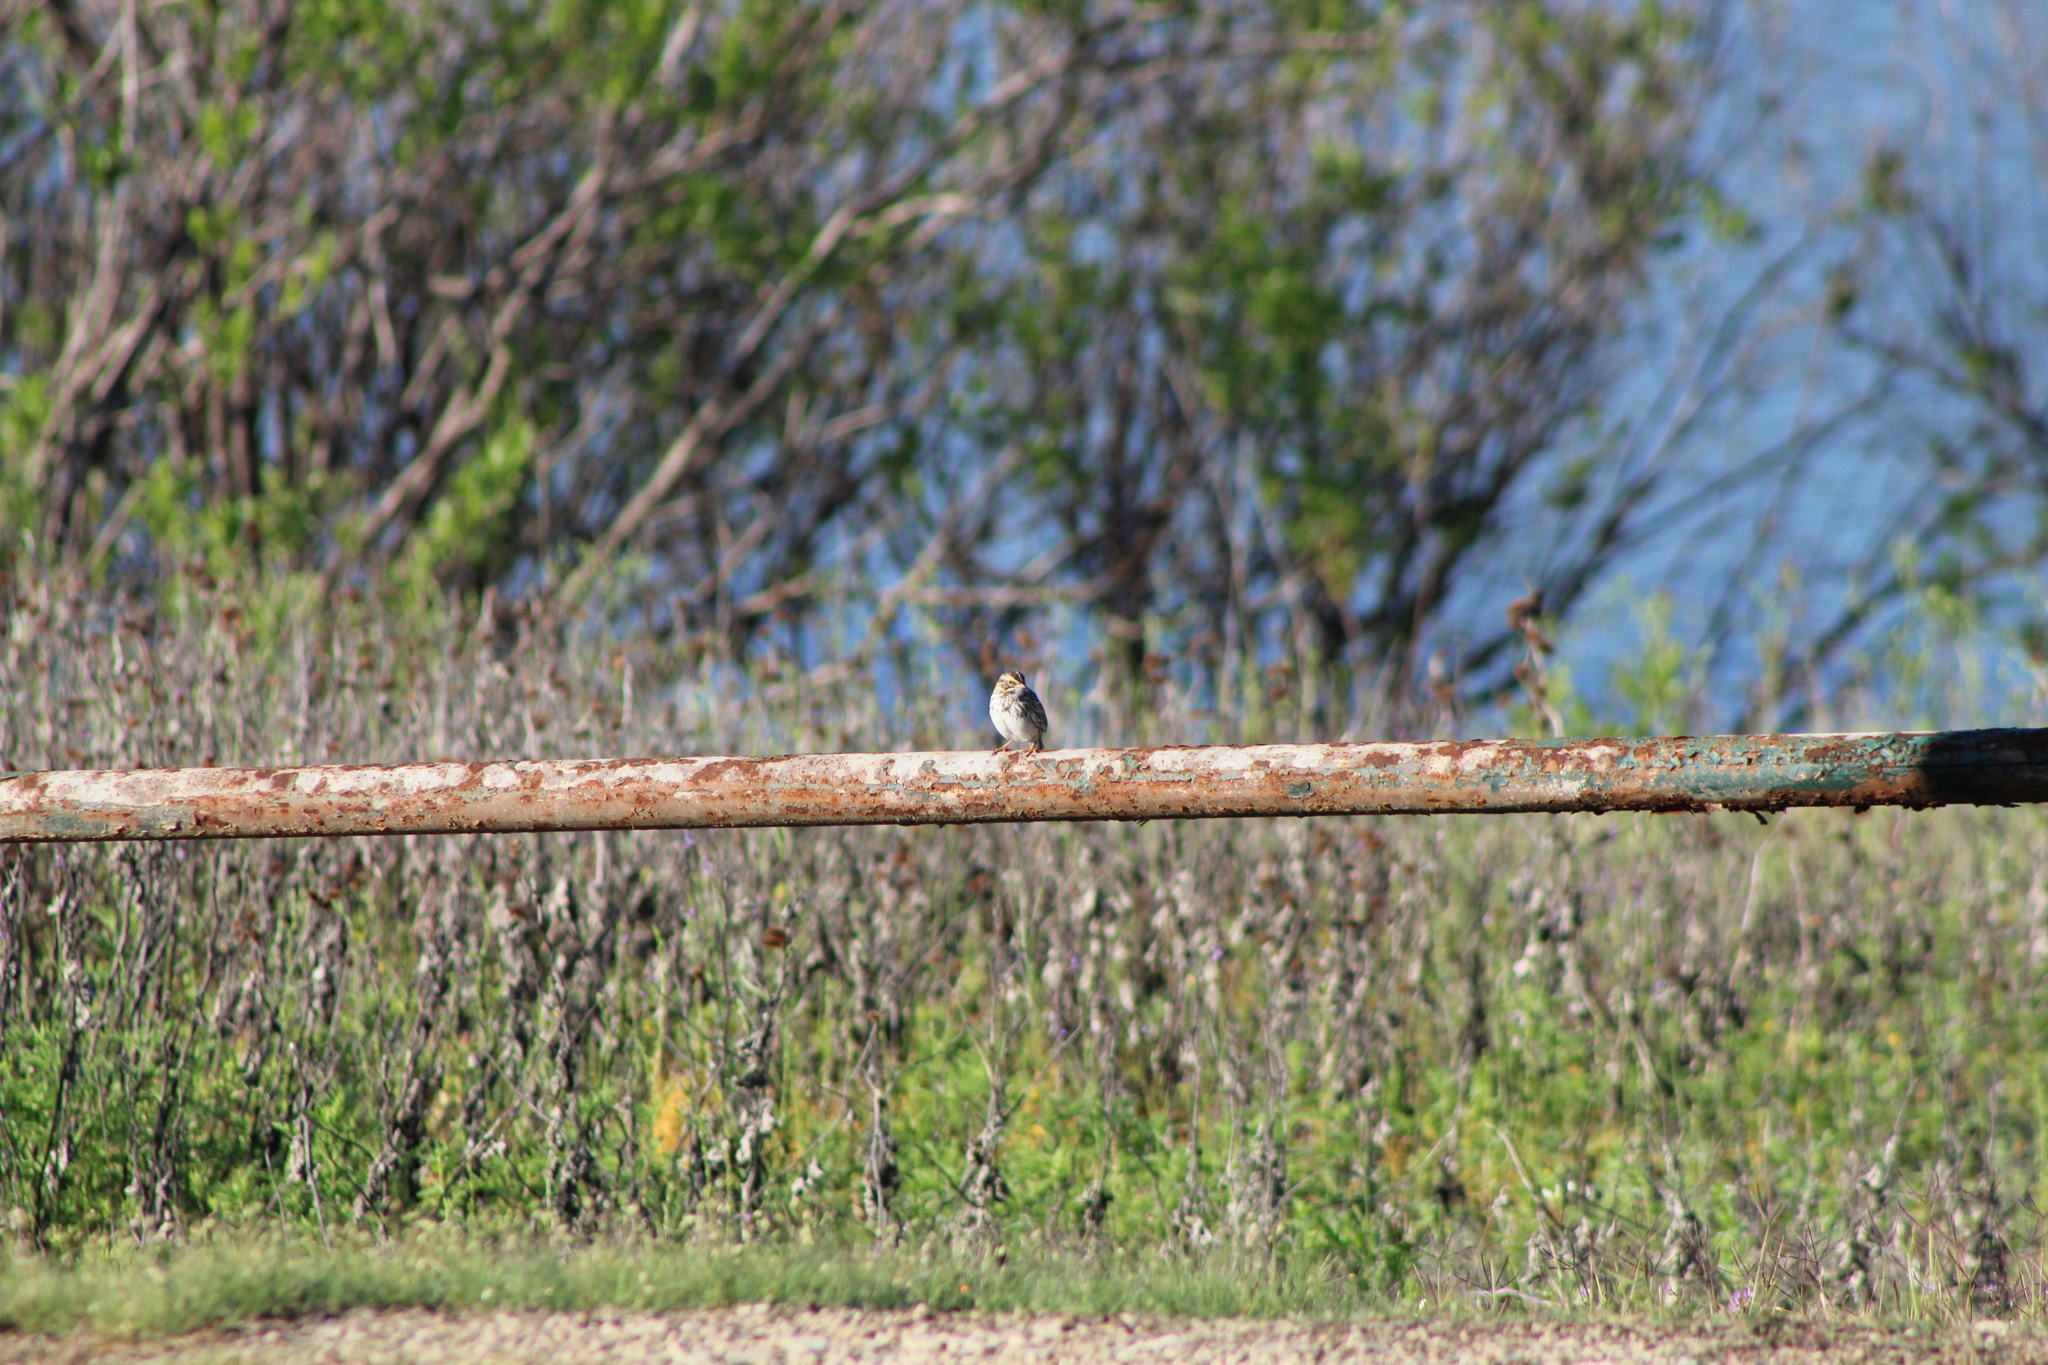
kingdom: Animalia
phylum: Chordata
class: Aves
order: Passeriformes
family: Passerellidae
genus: Passerculus
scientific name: Passerculus sandwichensis
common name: Savannah sparrow
